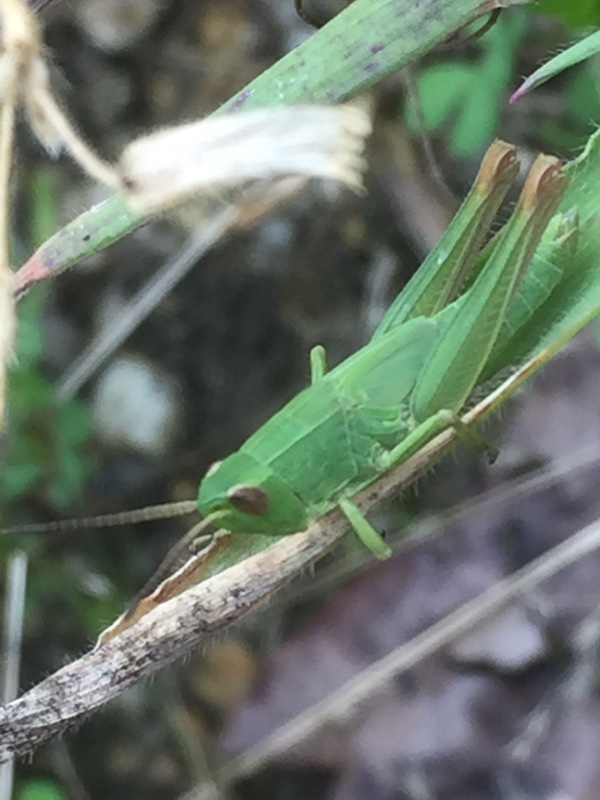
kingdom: Animalia
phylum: Arthropoda
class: Insecta
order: Orthoptera
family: Acrididae
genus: Chorthippus
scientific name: Chorthippus jucundus
